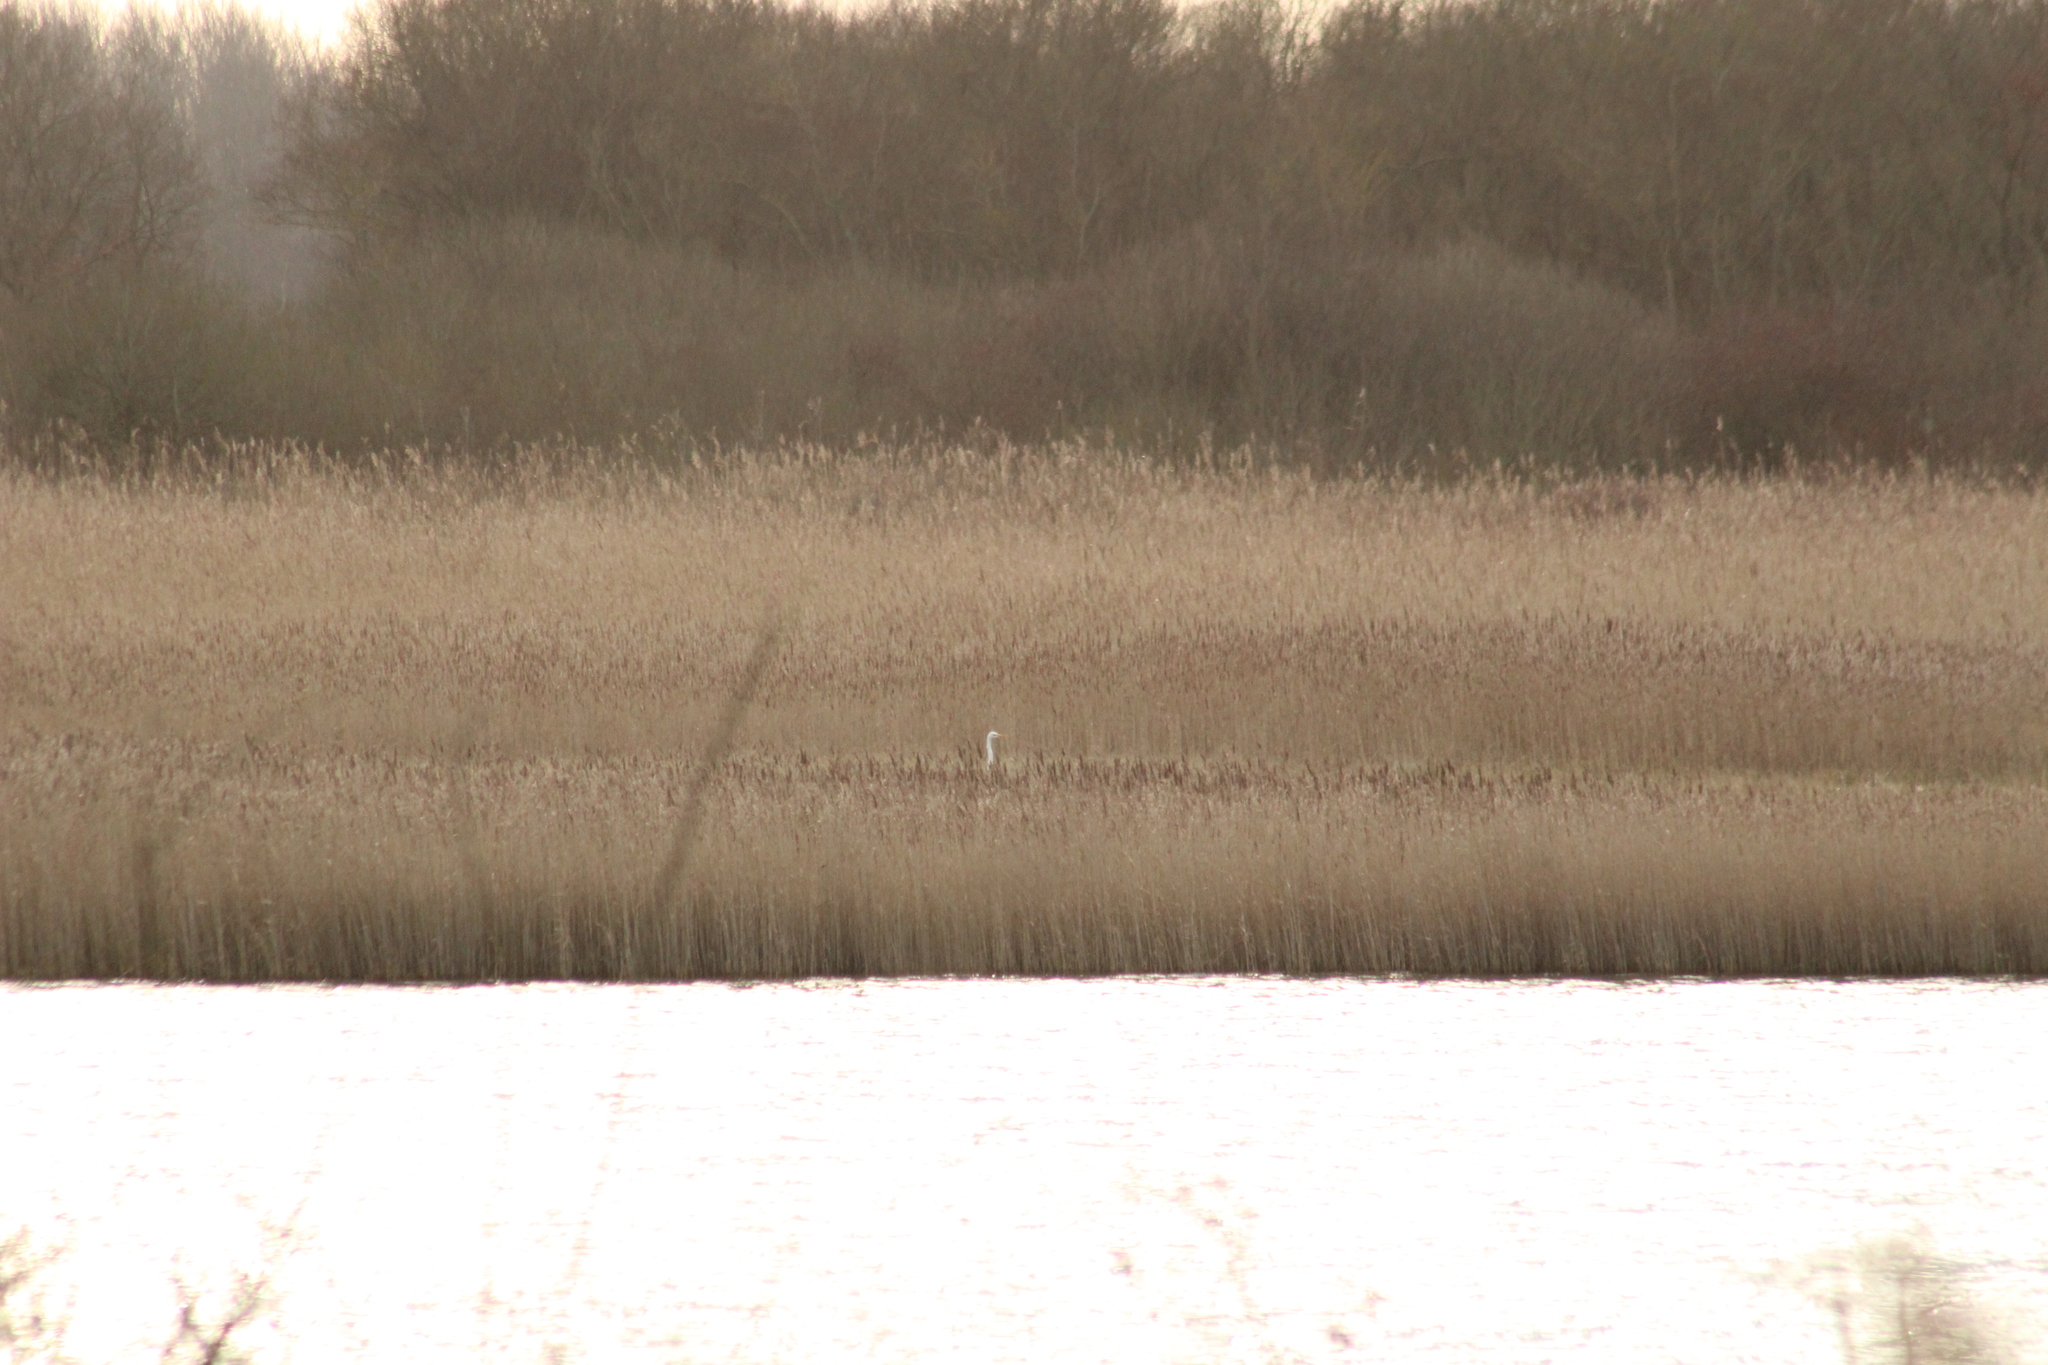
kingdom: Animalia
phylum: Chordata
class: Aves
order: Pelecaniformes
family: Ardeidae
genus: Ardea
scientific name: Ardea alba
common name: Great egret
